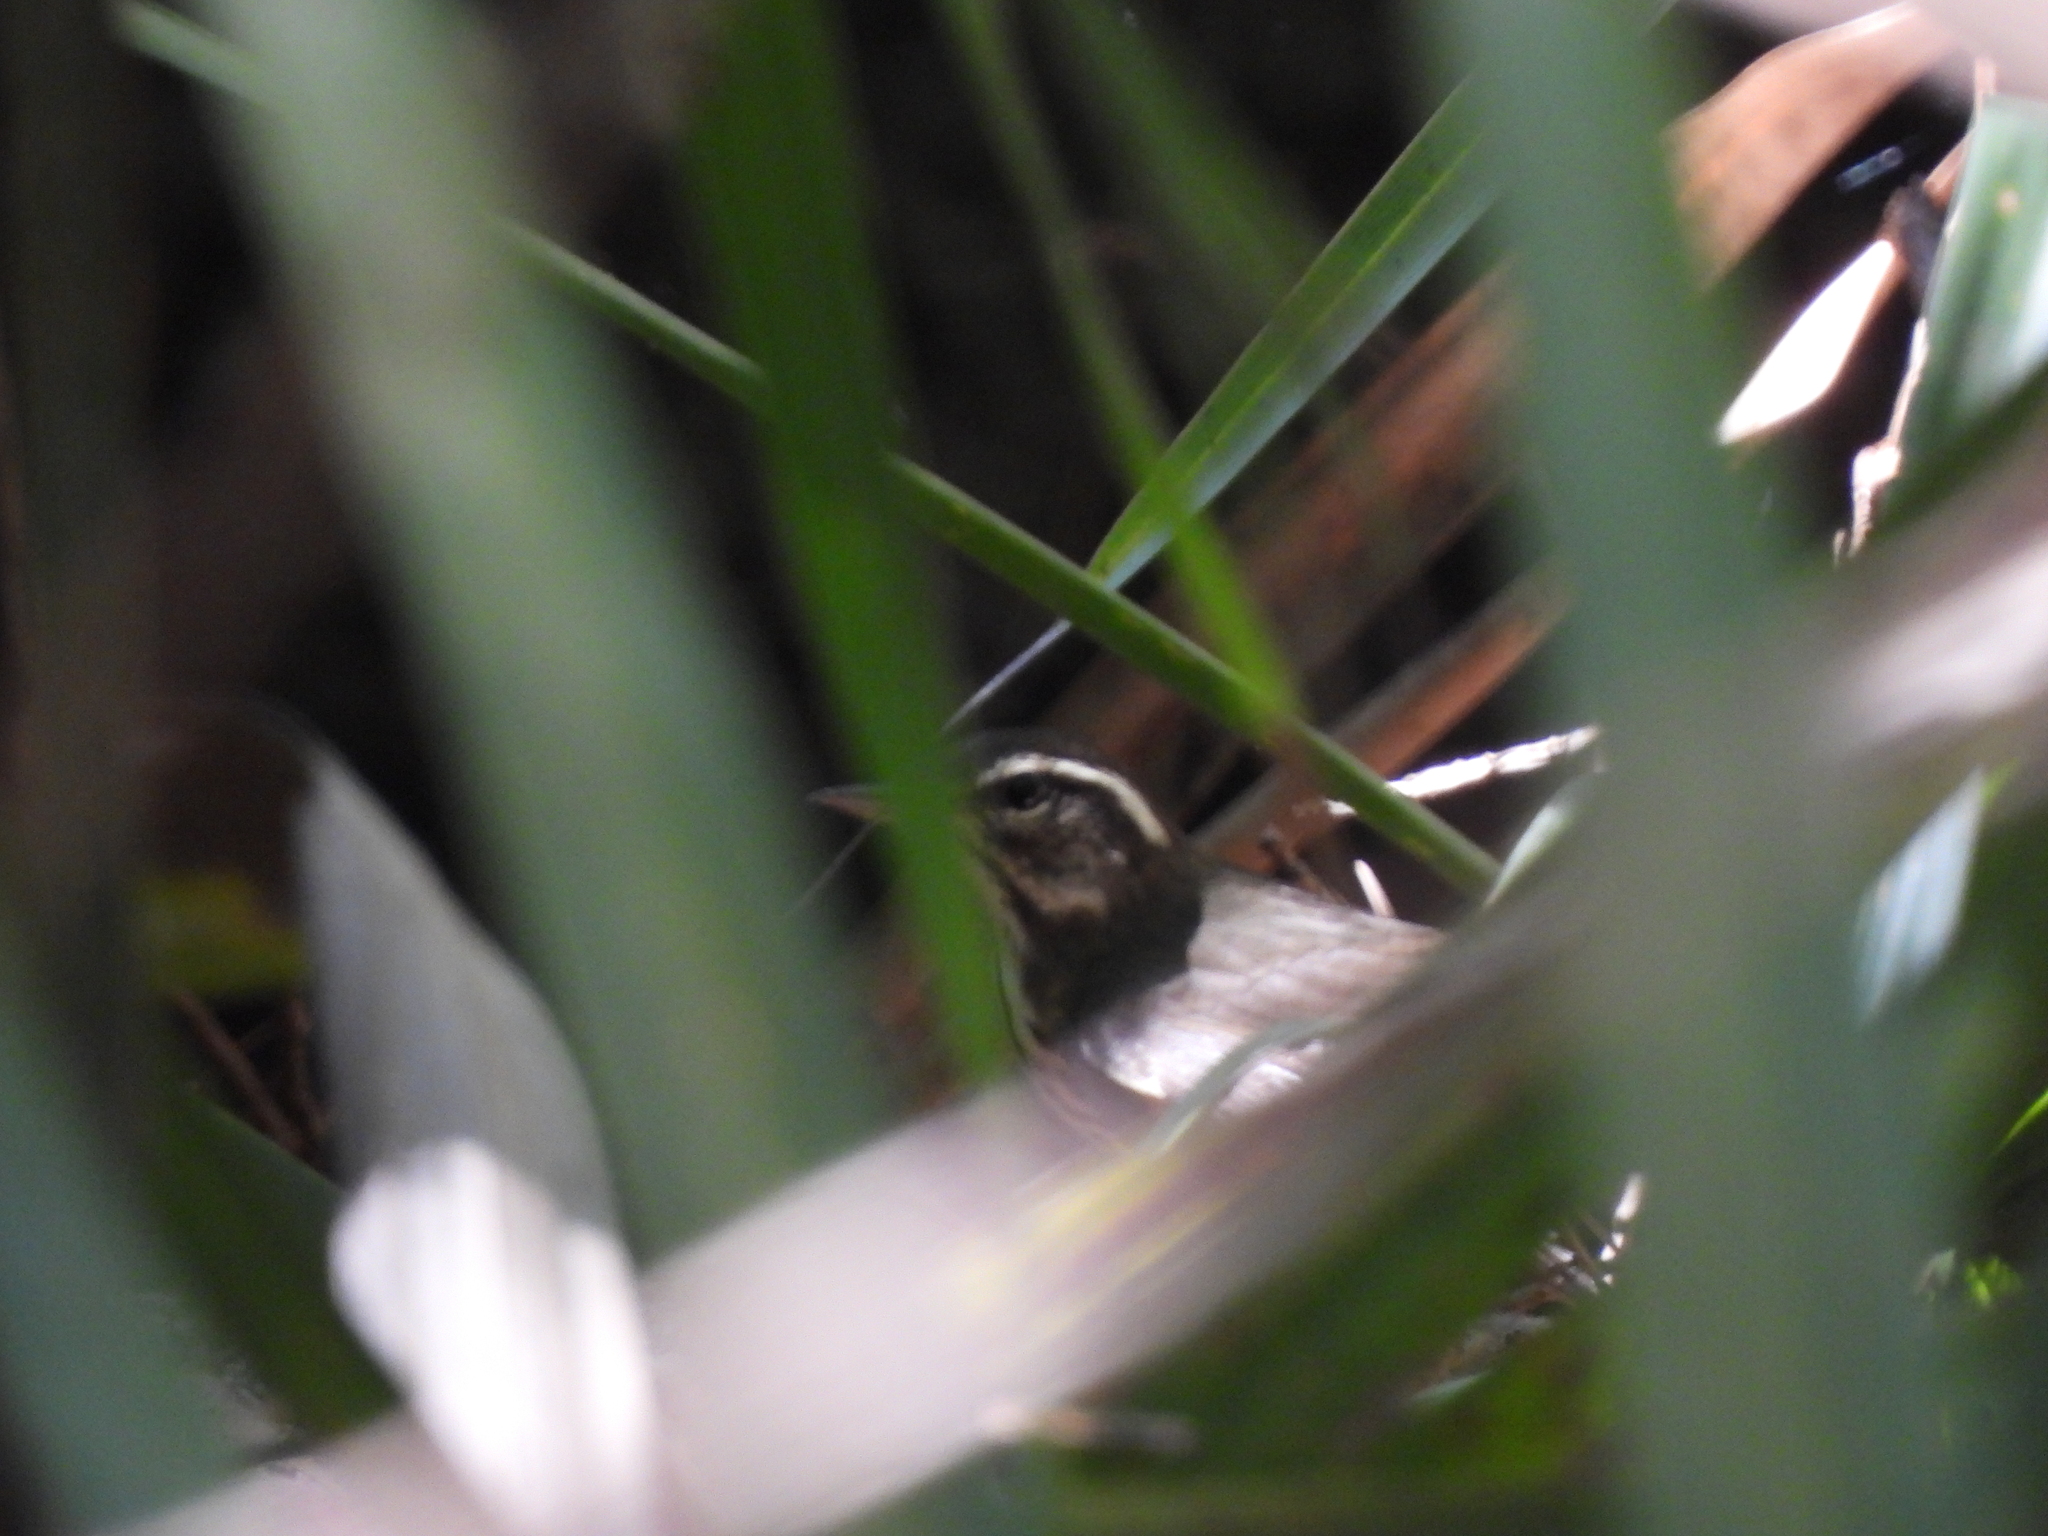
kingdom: Animalia
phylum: Chordata
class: Aves
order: Passeriformes
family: Parulidae
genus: Parkesia
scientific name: Parkesia motacilla
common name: Louisiana waterthrush
